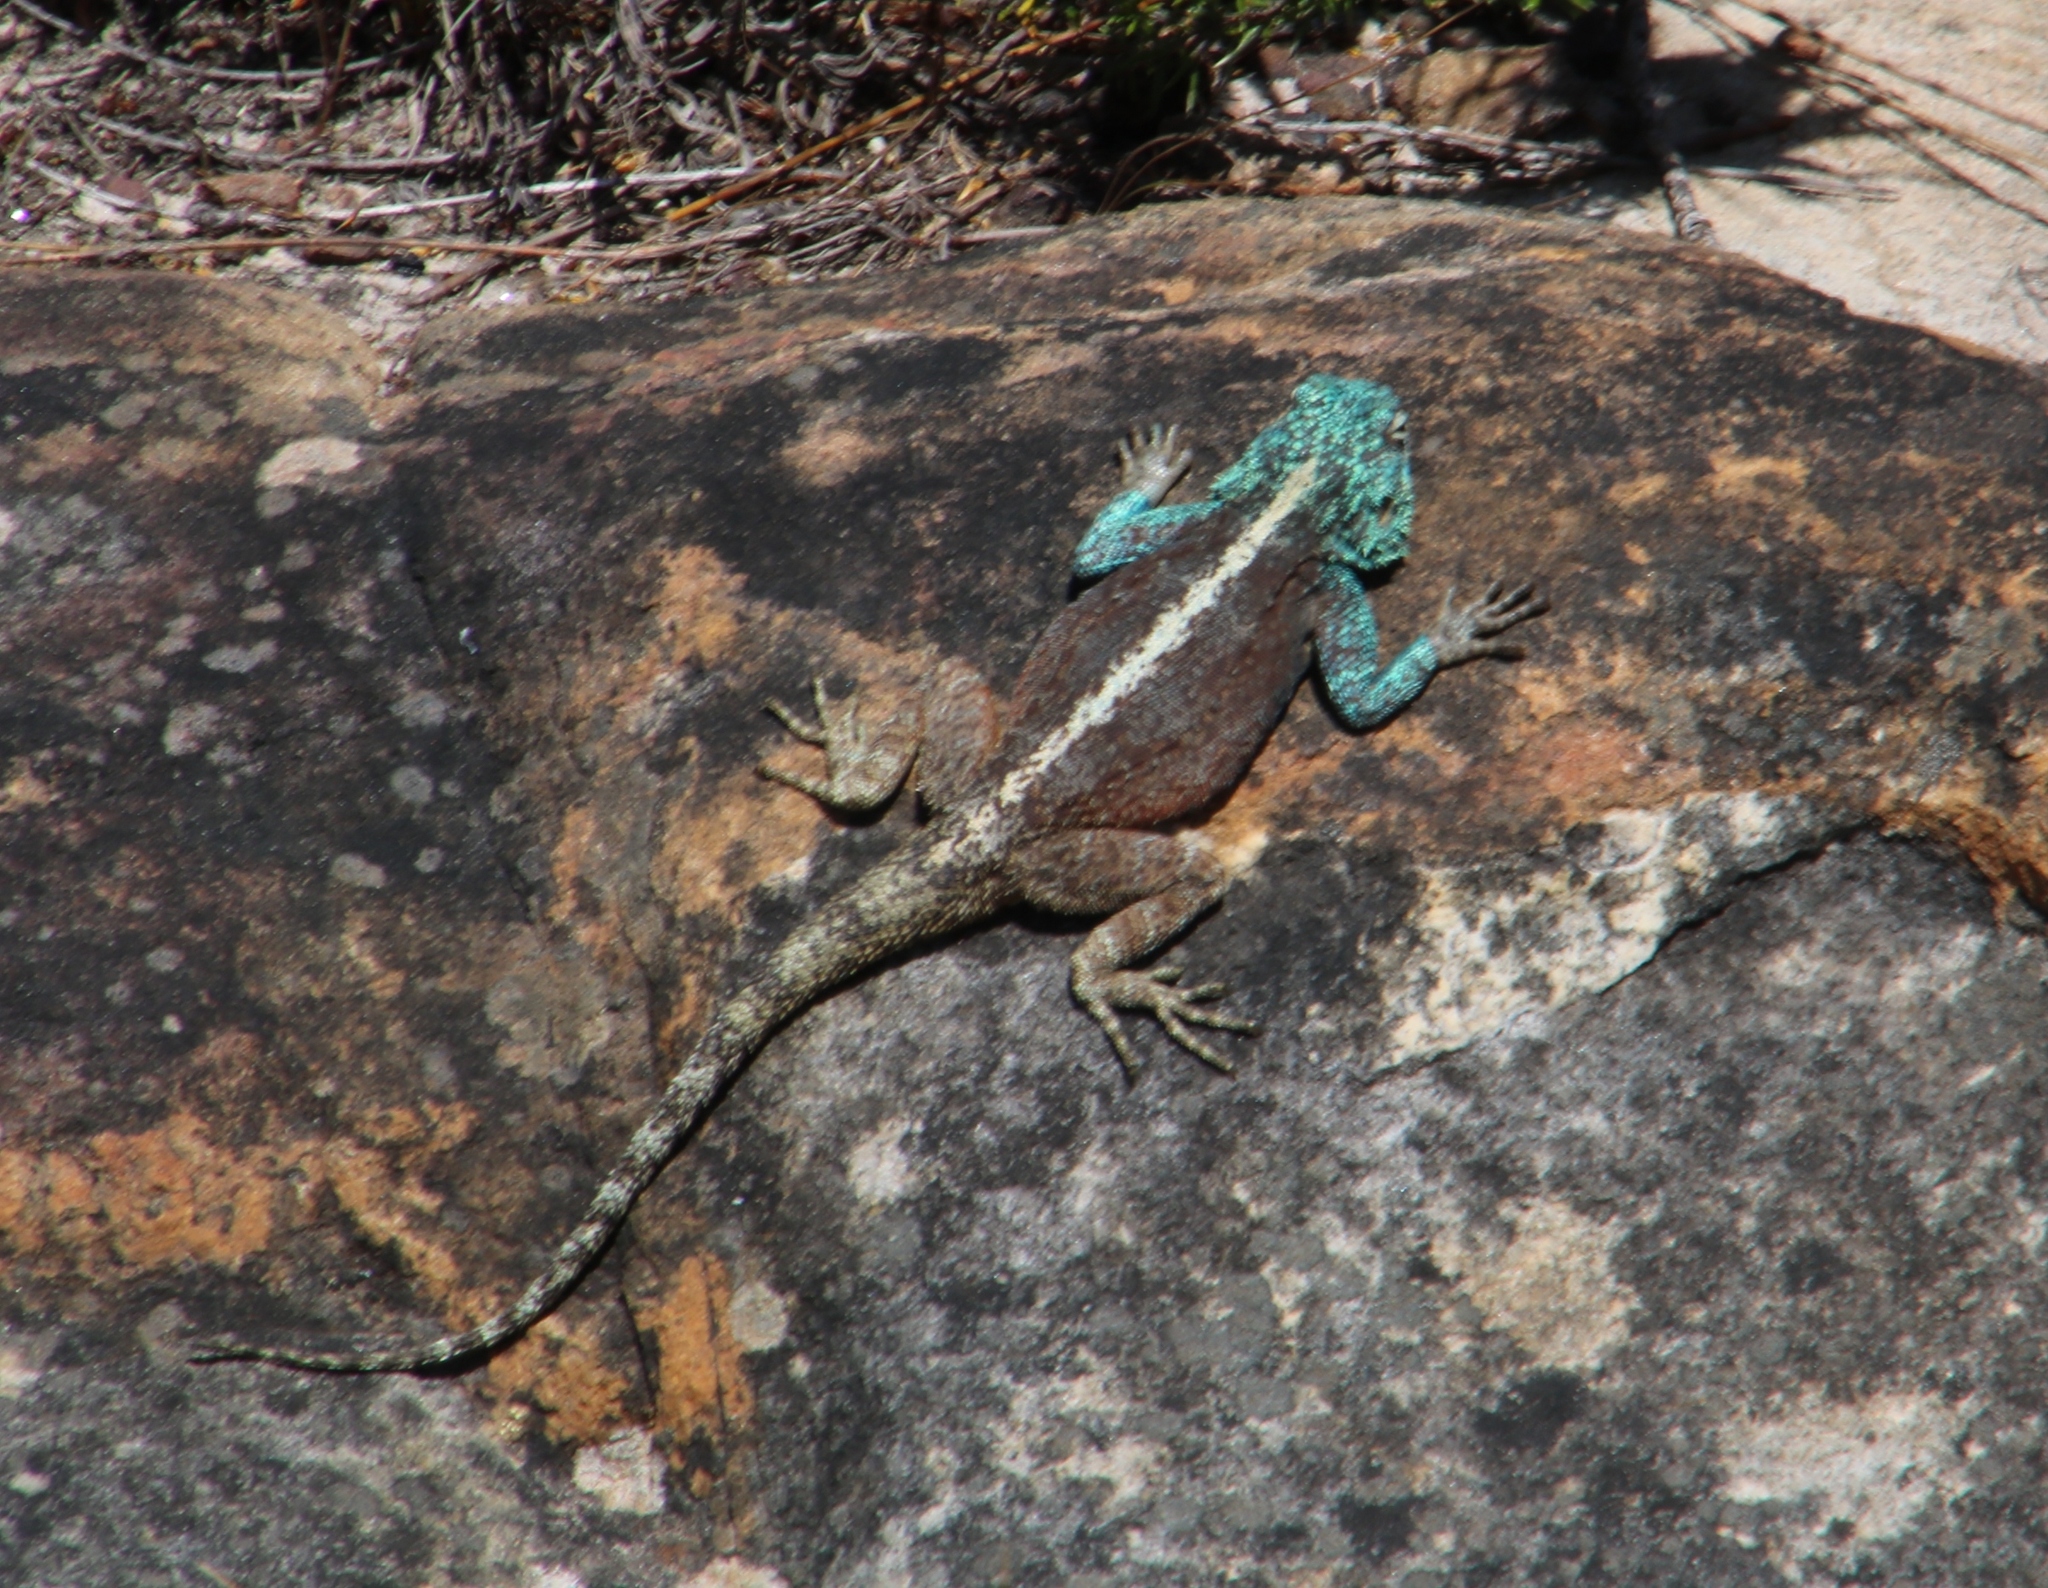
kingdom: Animalia
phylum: Chordata
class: Squamata
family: Agamidae
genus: Agama
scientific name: Agama atra
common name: Southern african rock agama
